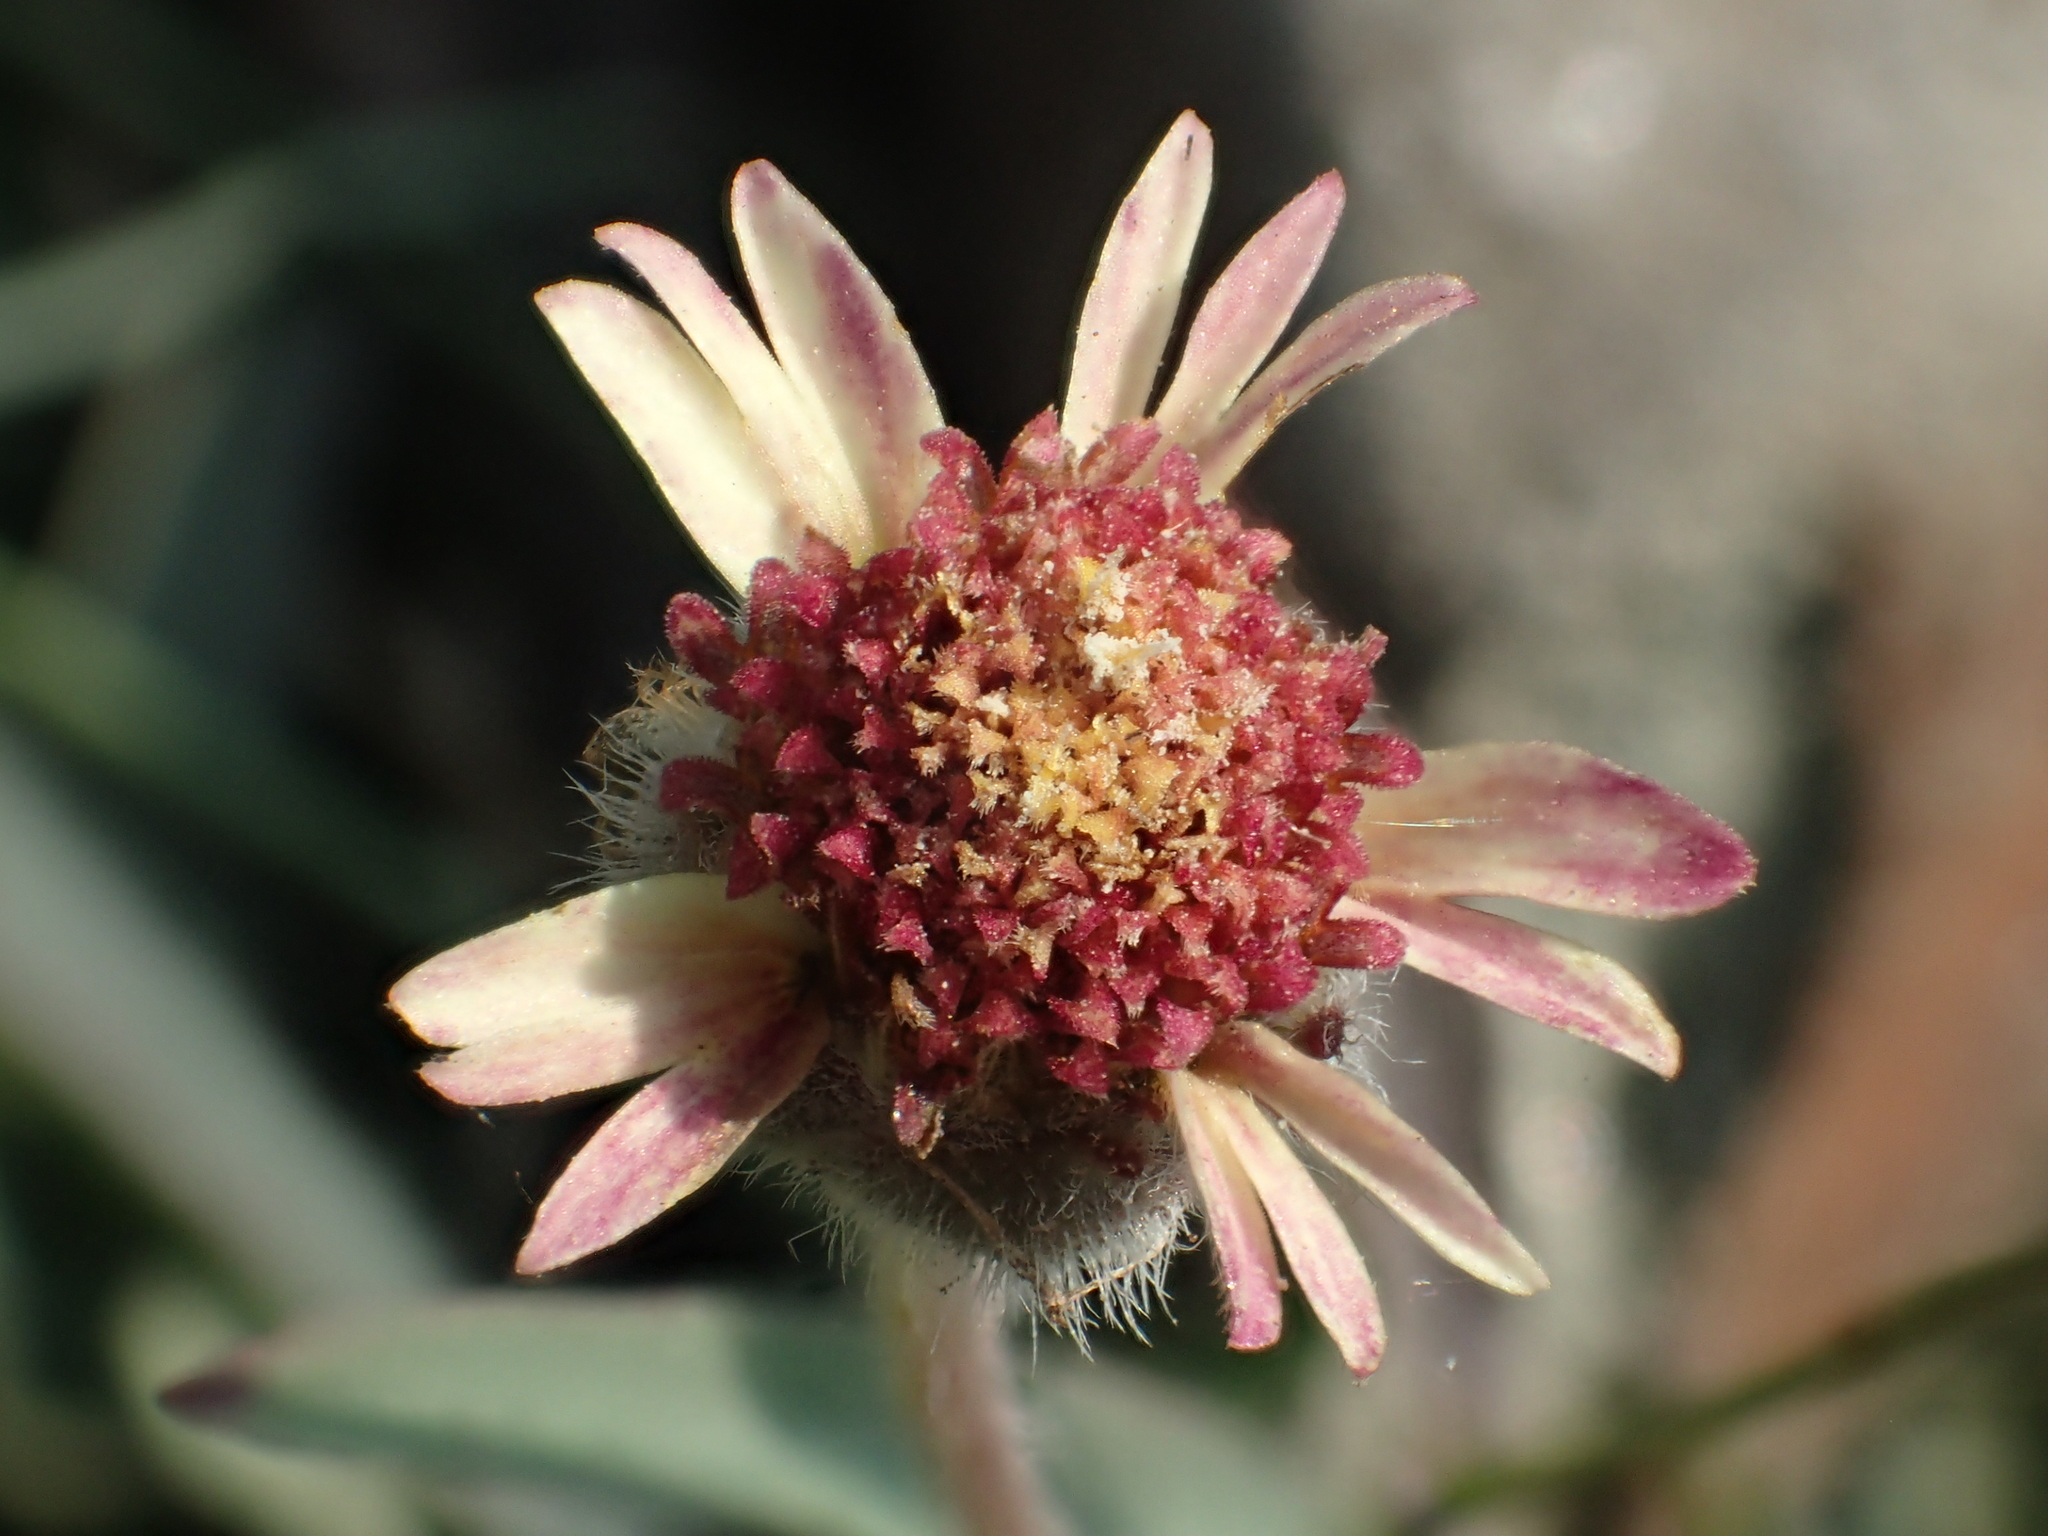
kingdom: Plantae
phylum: Tracheophyta
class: Magnoliopsida
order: Asterales
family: Asteraceae
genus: Tridax
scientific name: Tridax procumbens
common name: Coatbuttons
